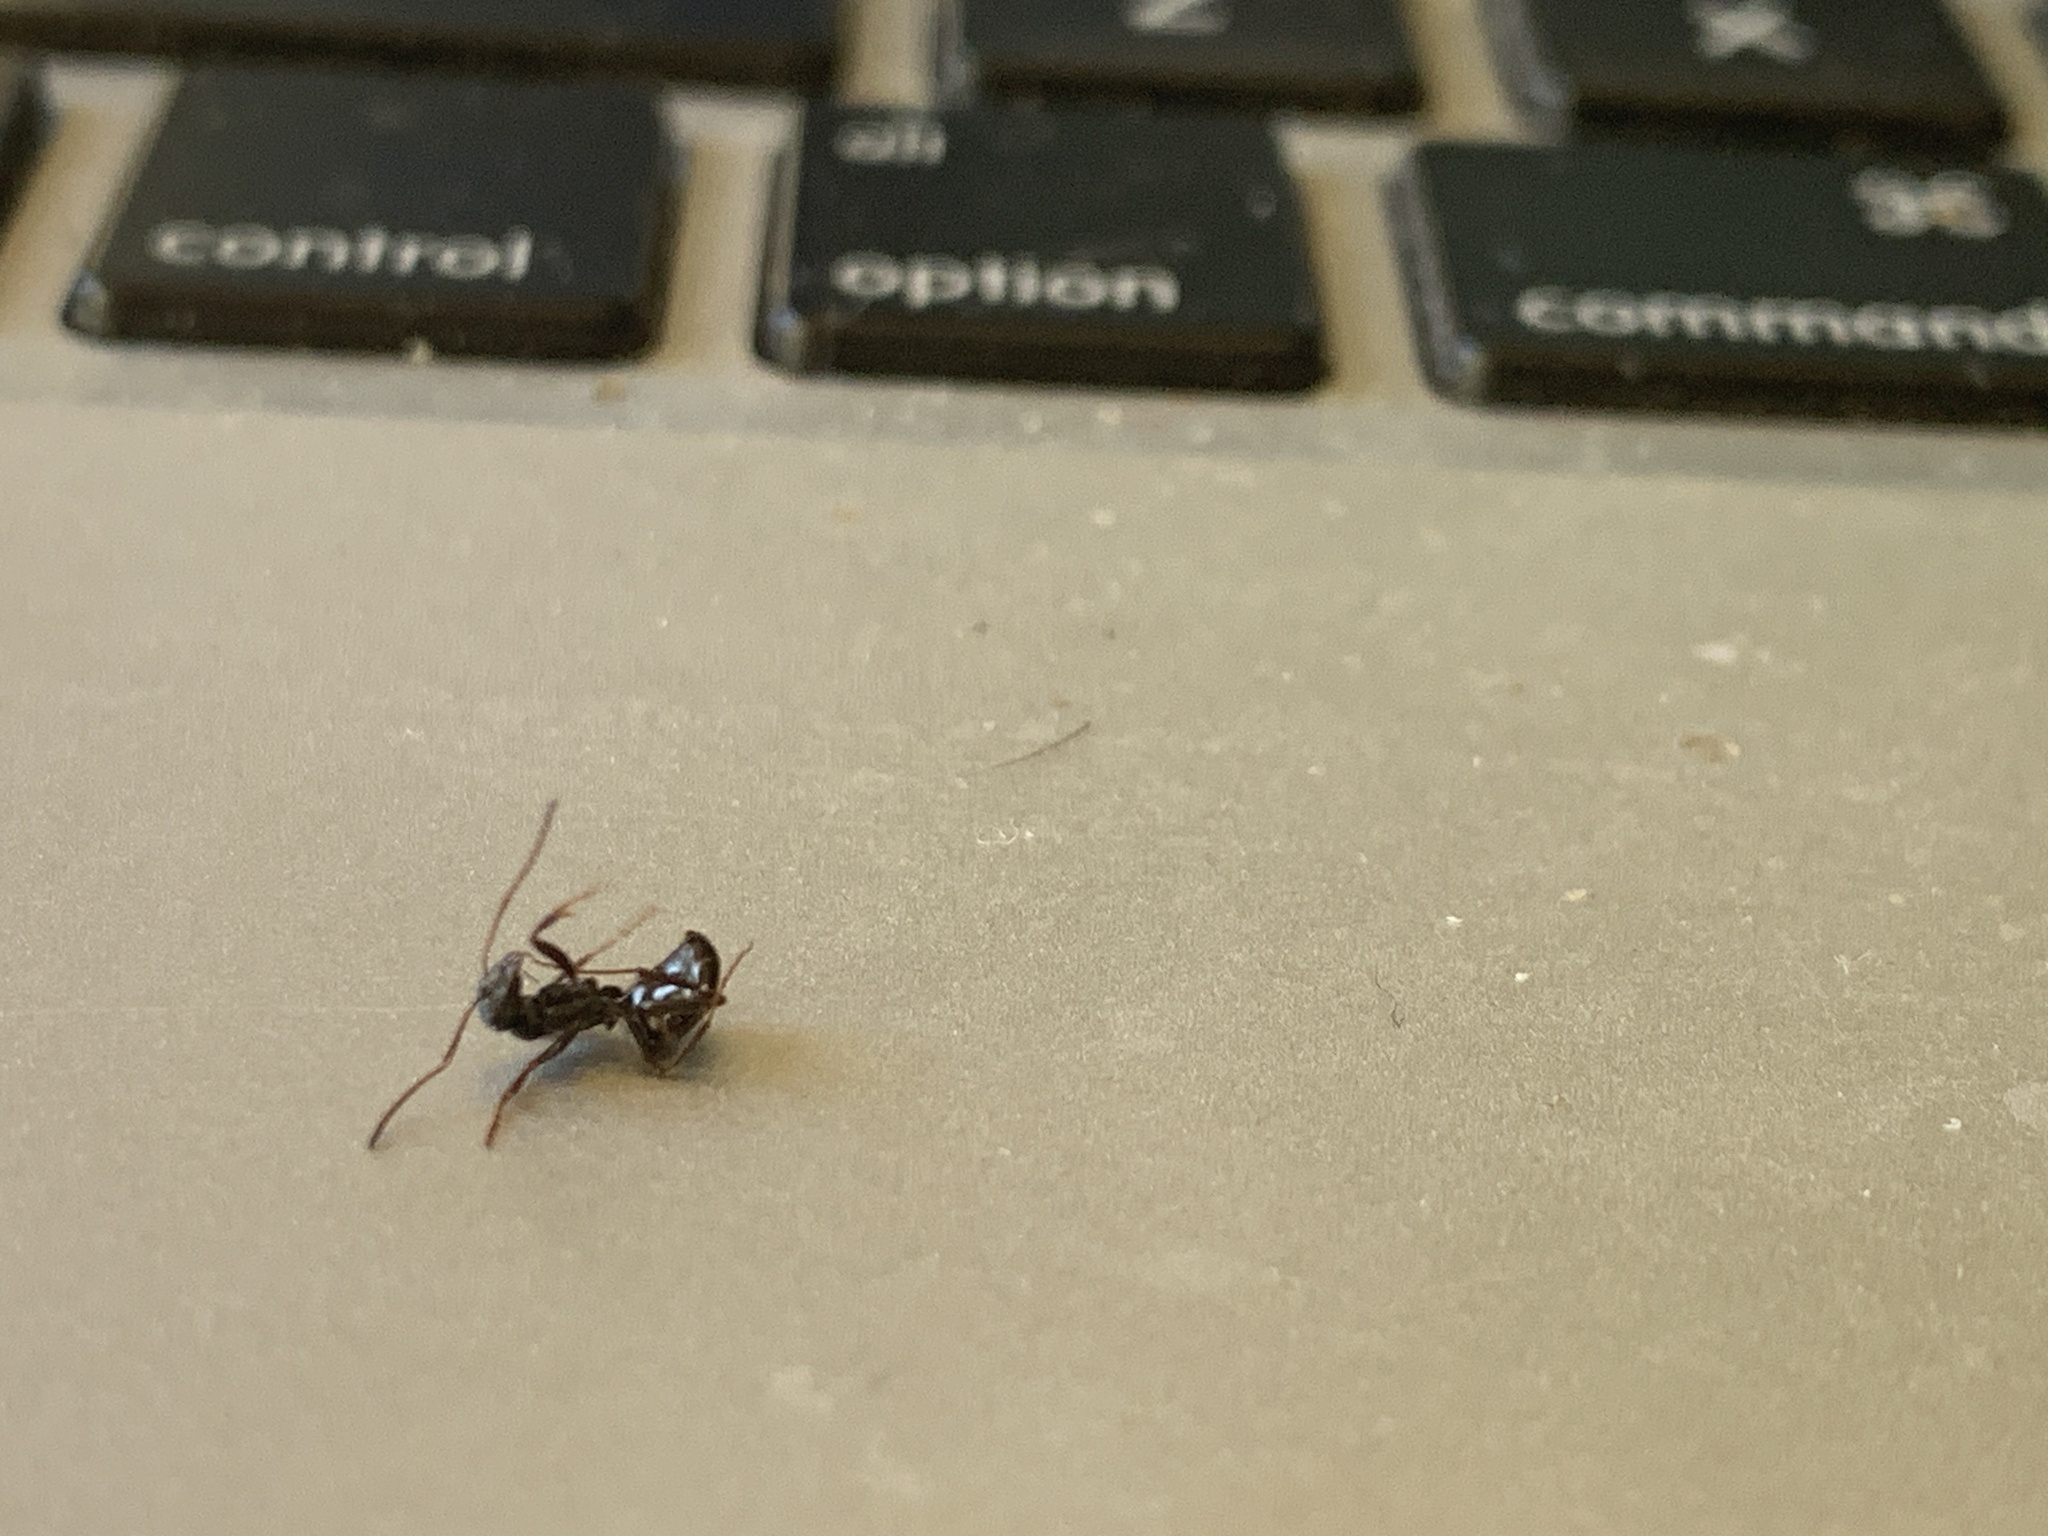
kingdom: Animalia
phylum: Arthropoda
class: Insecta
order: Hymenoptera
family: Formicidae
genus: Formica
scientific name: Formica
